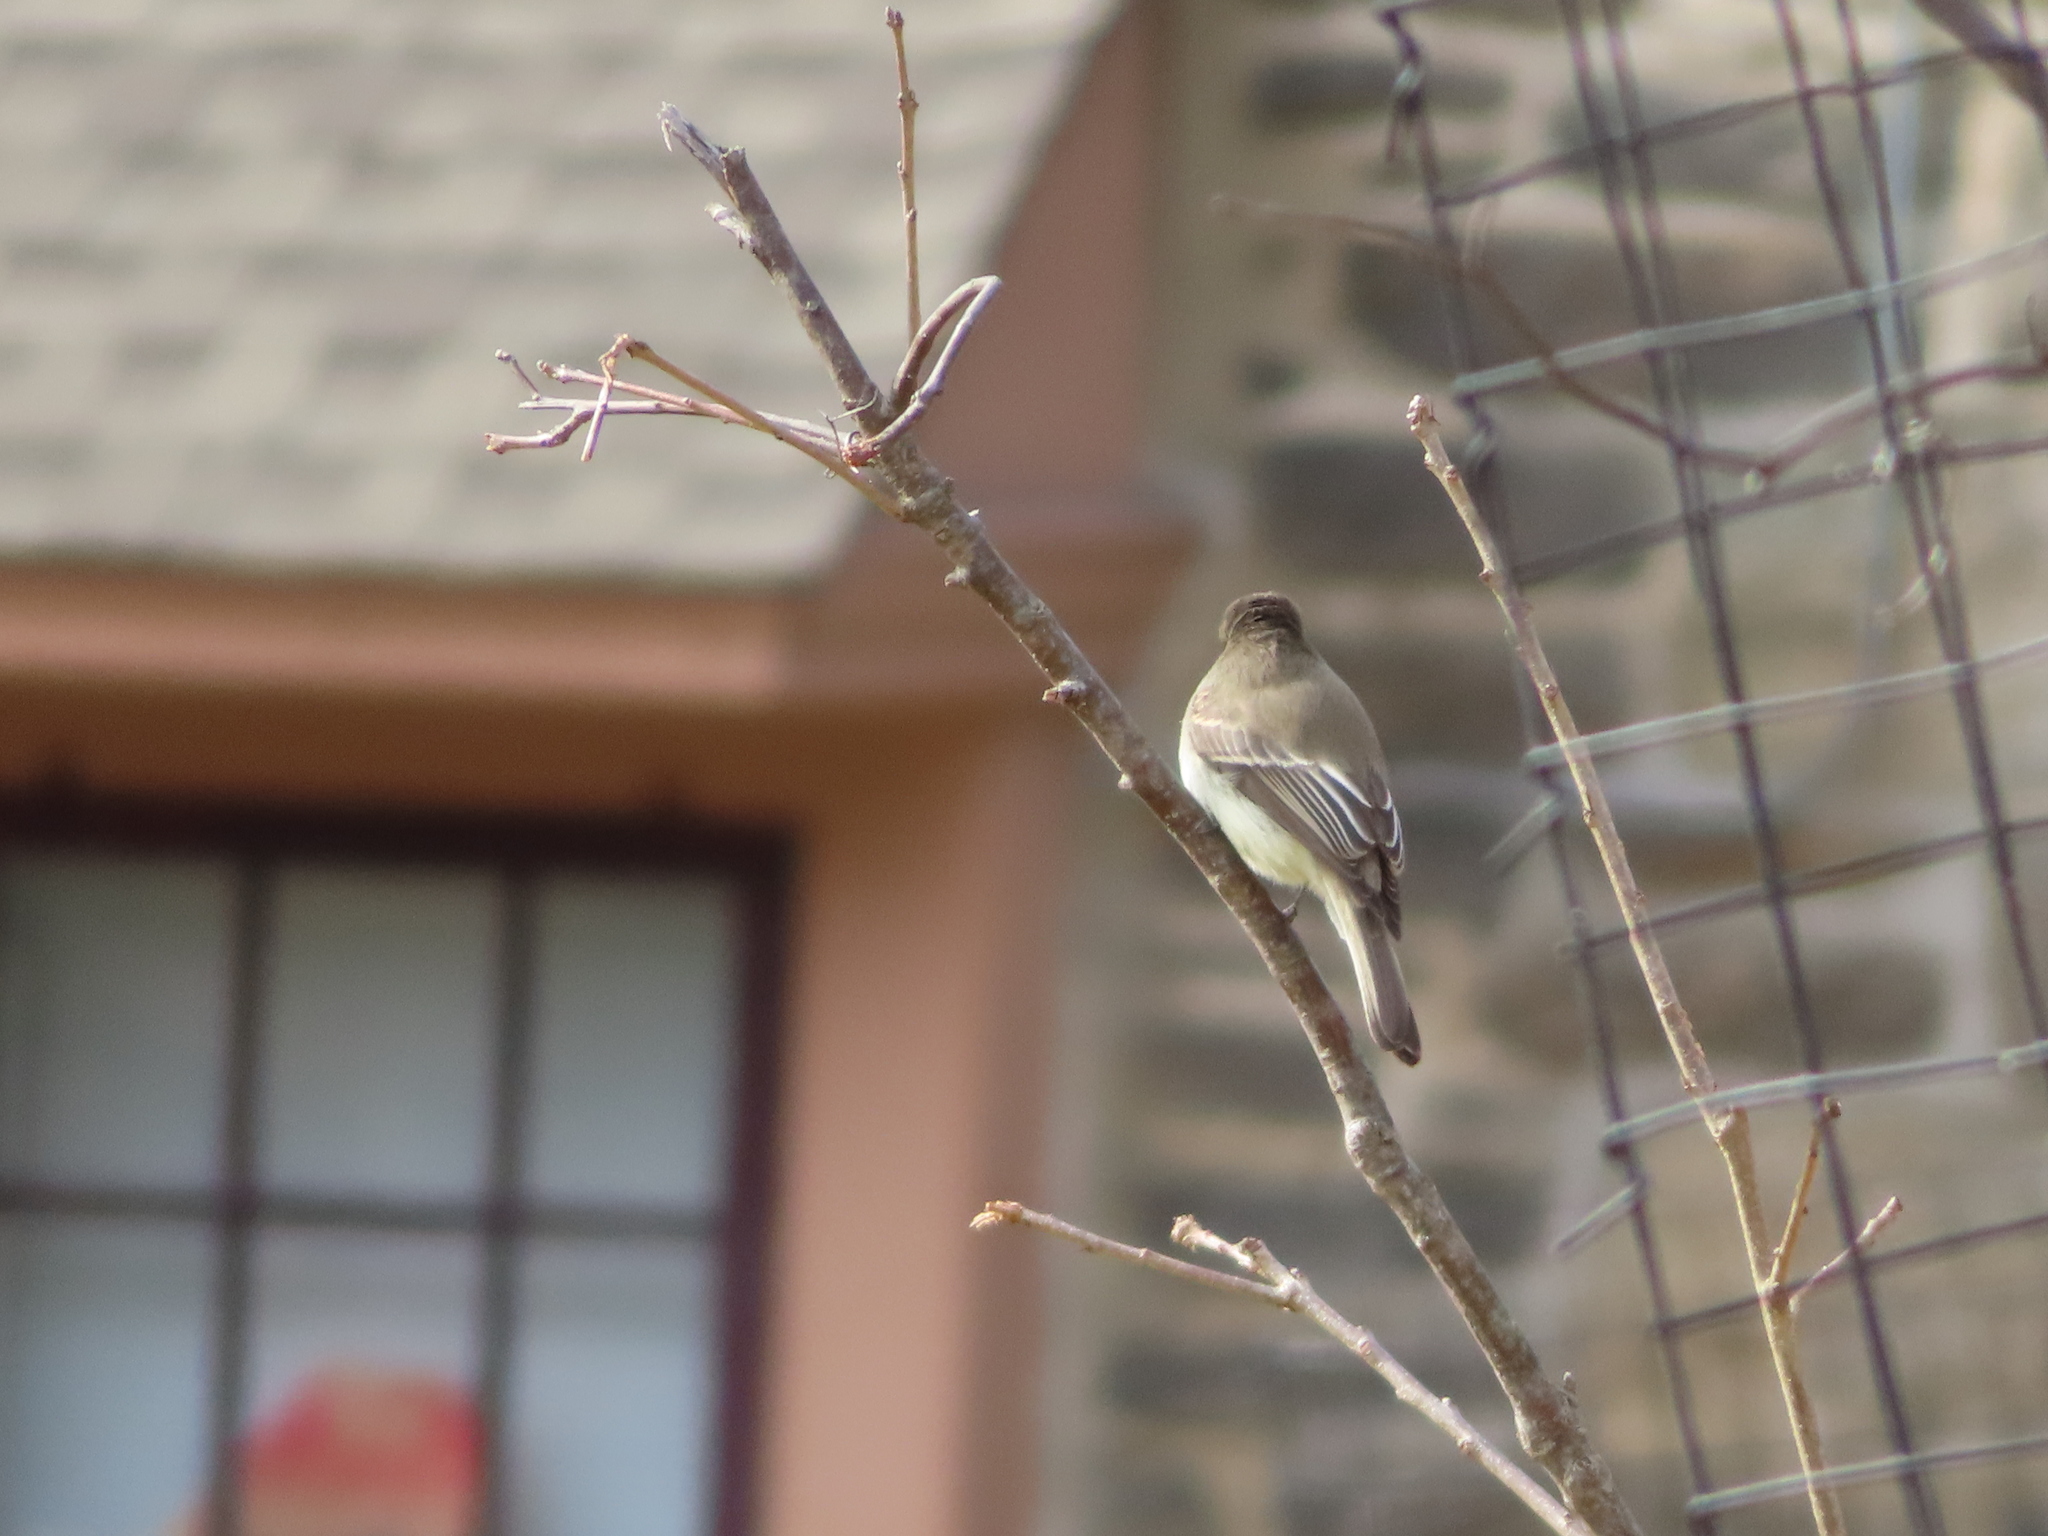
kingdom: Animalia
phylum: Chordata
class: Aves
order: Passeriformes
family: Tyrannidae
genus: Sayornis
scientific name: Sayornis phoebe
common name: Eastern phoebe
